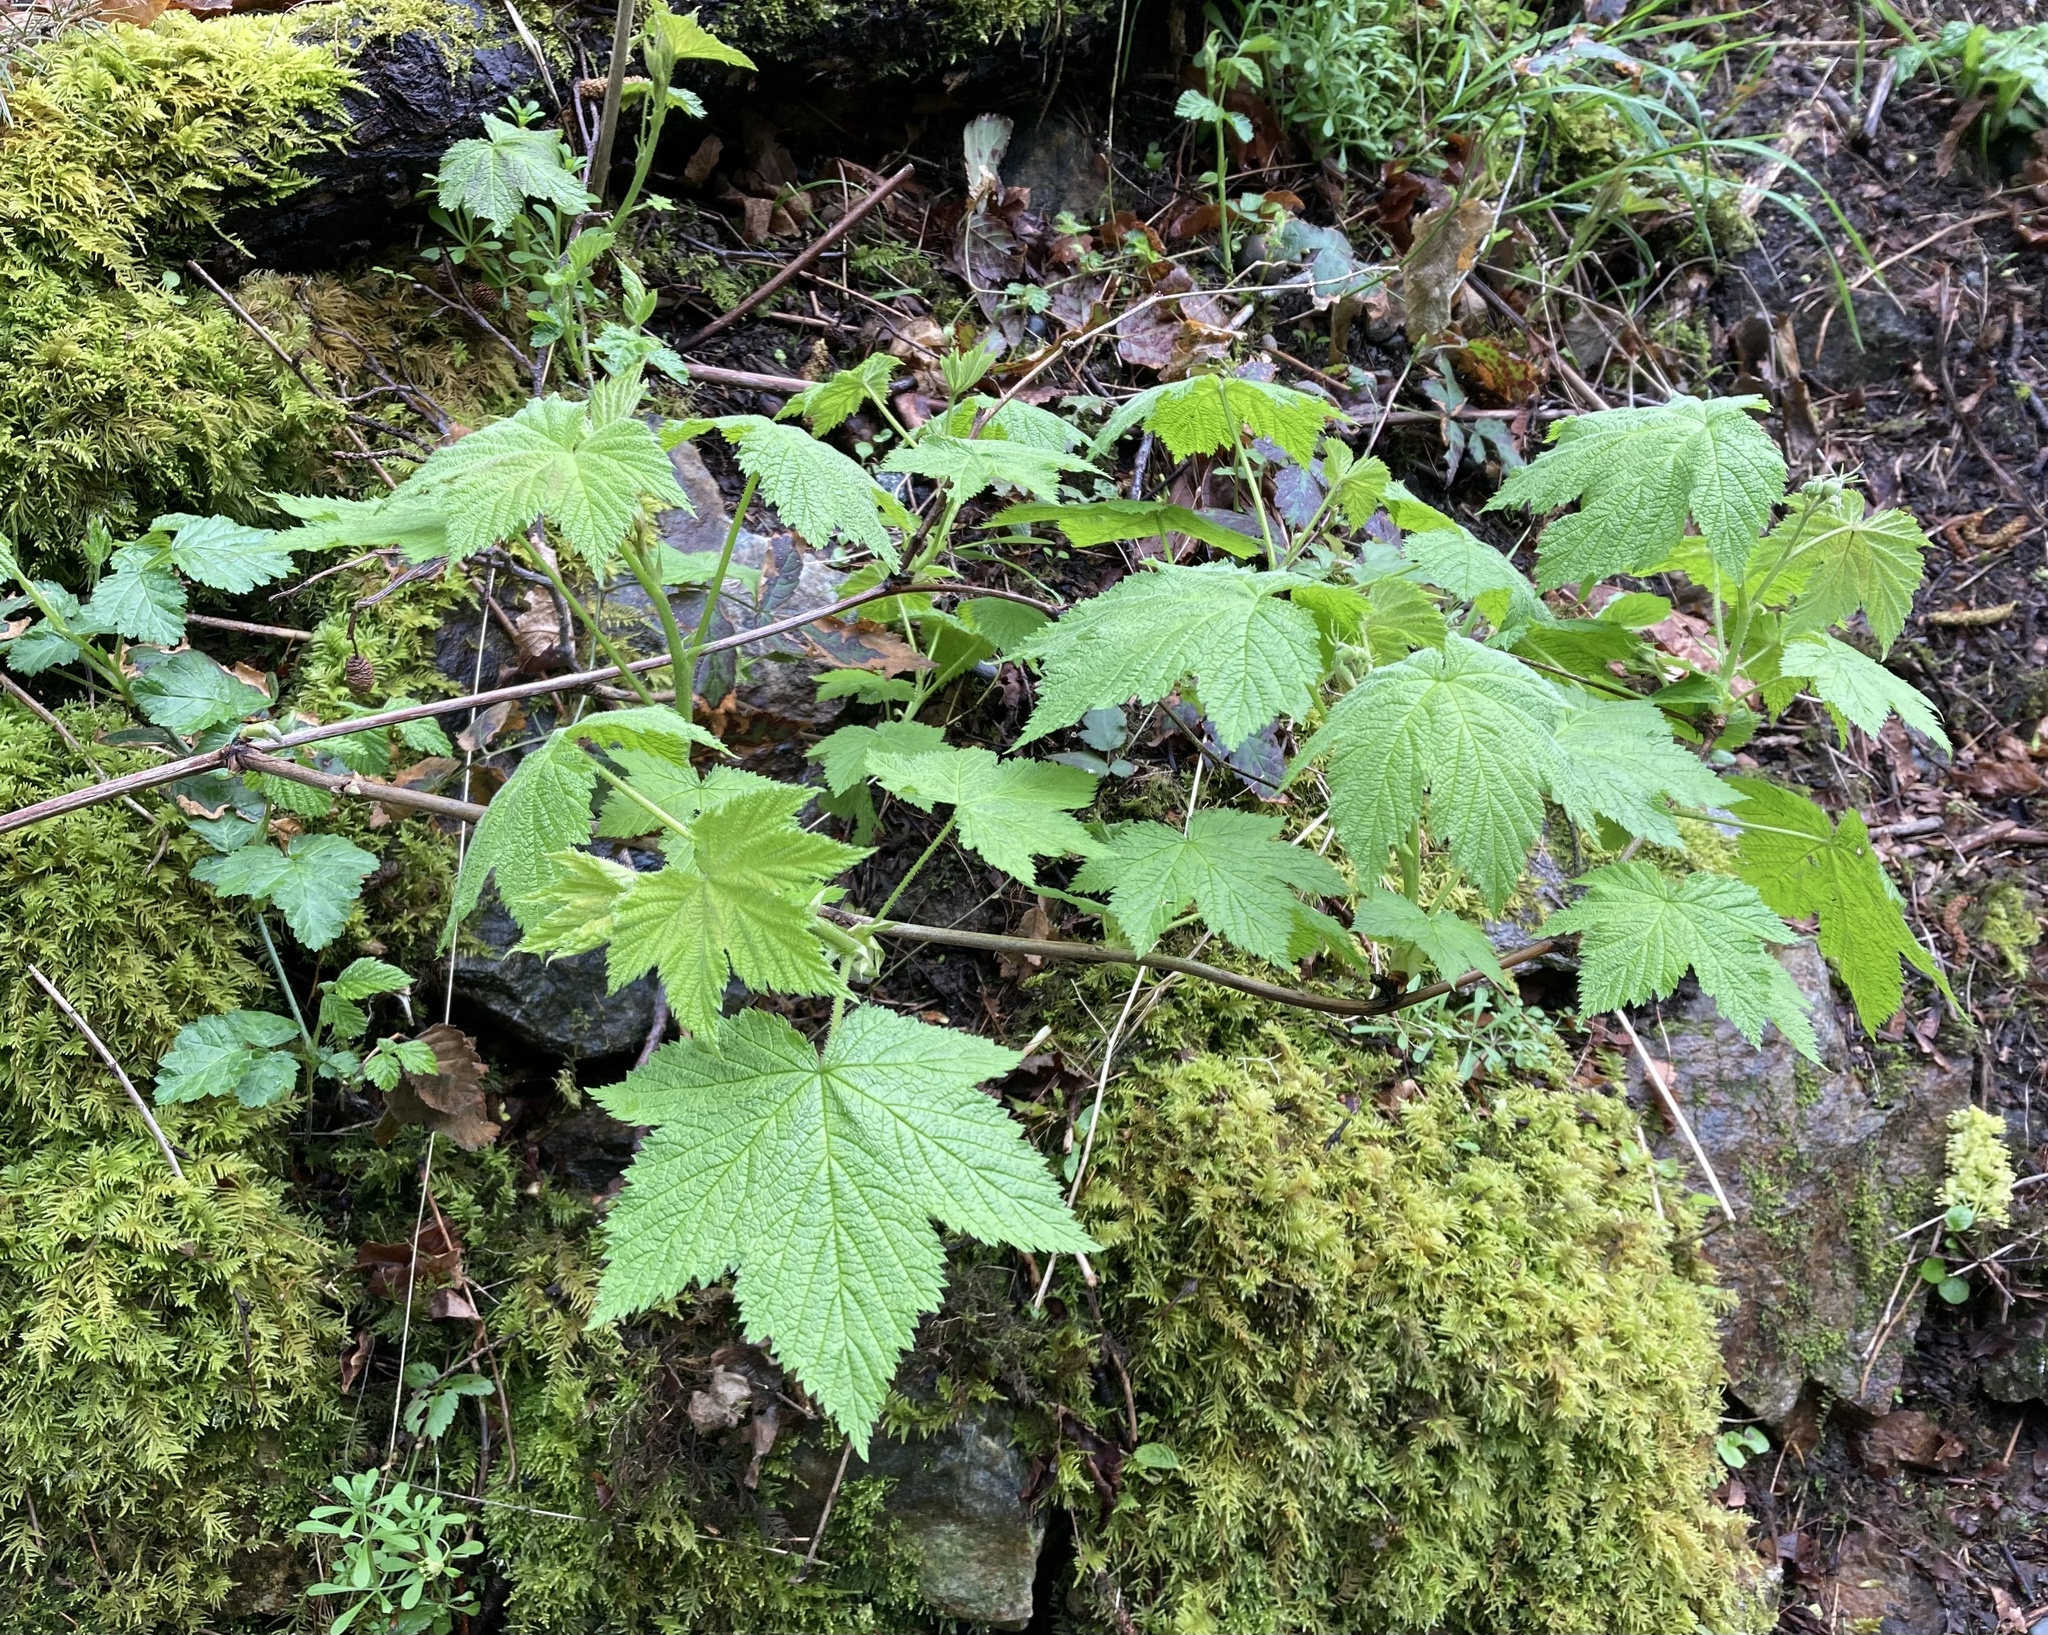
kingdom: Plantae
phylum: Tracheophyta
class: Magnoliopsida
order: Rosales
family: Rosaceae
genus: Rubus
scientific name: Rubus parviflorus
